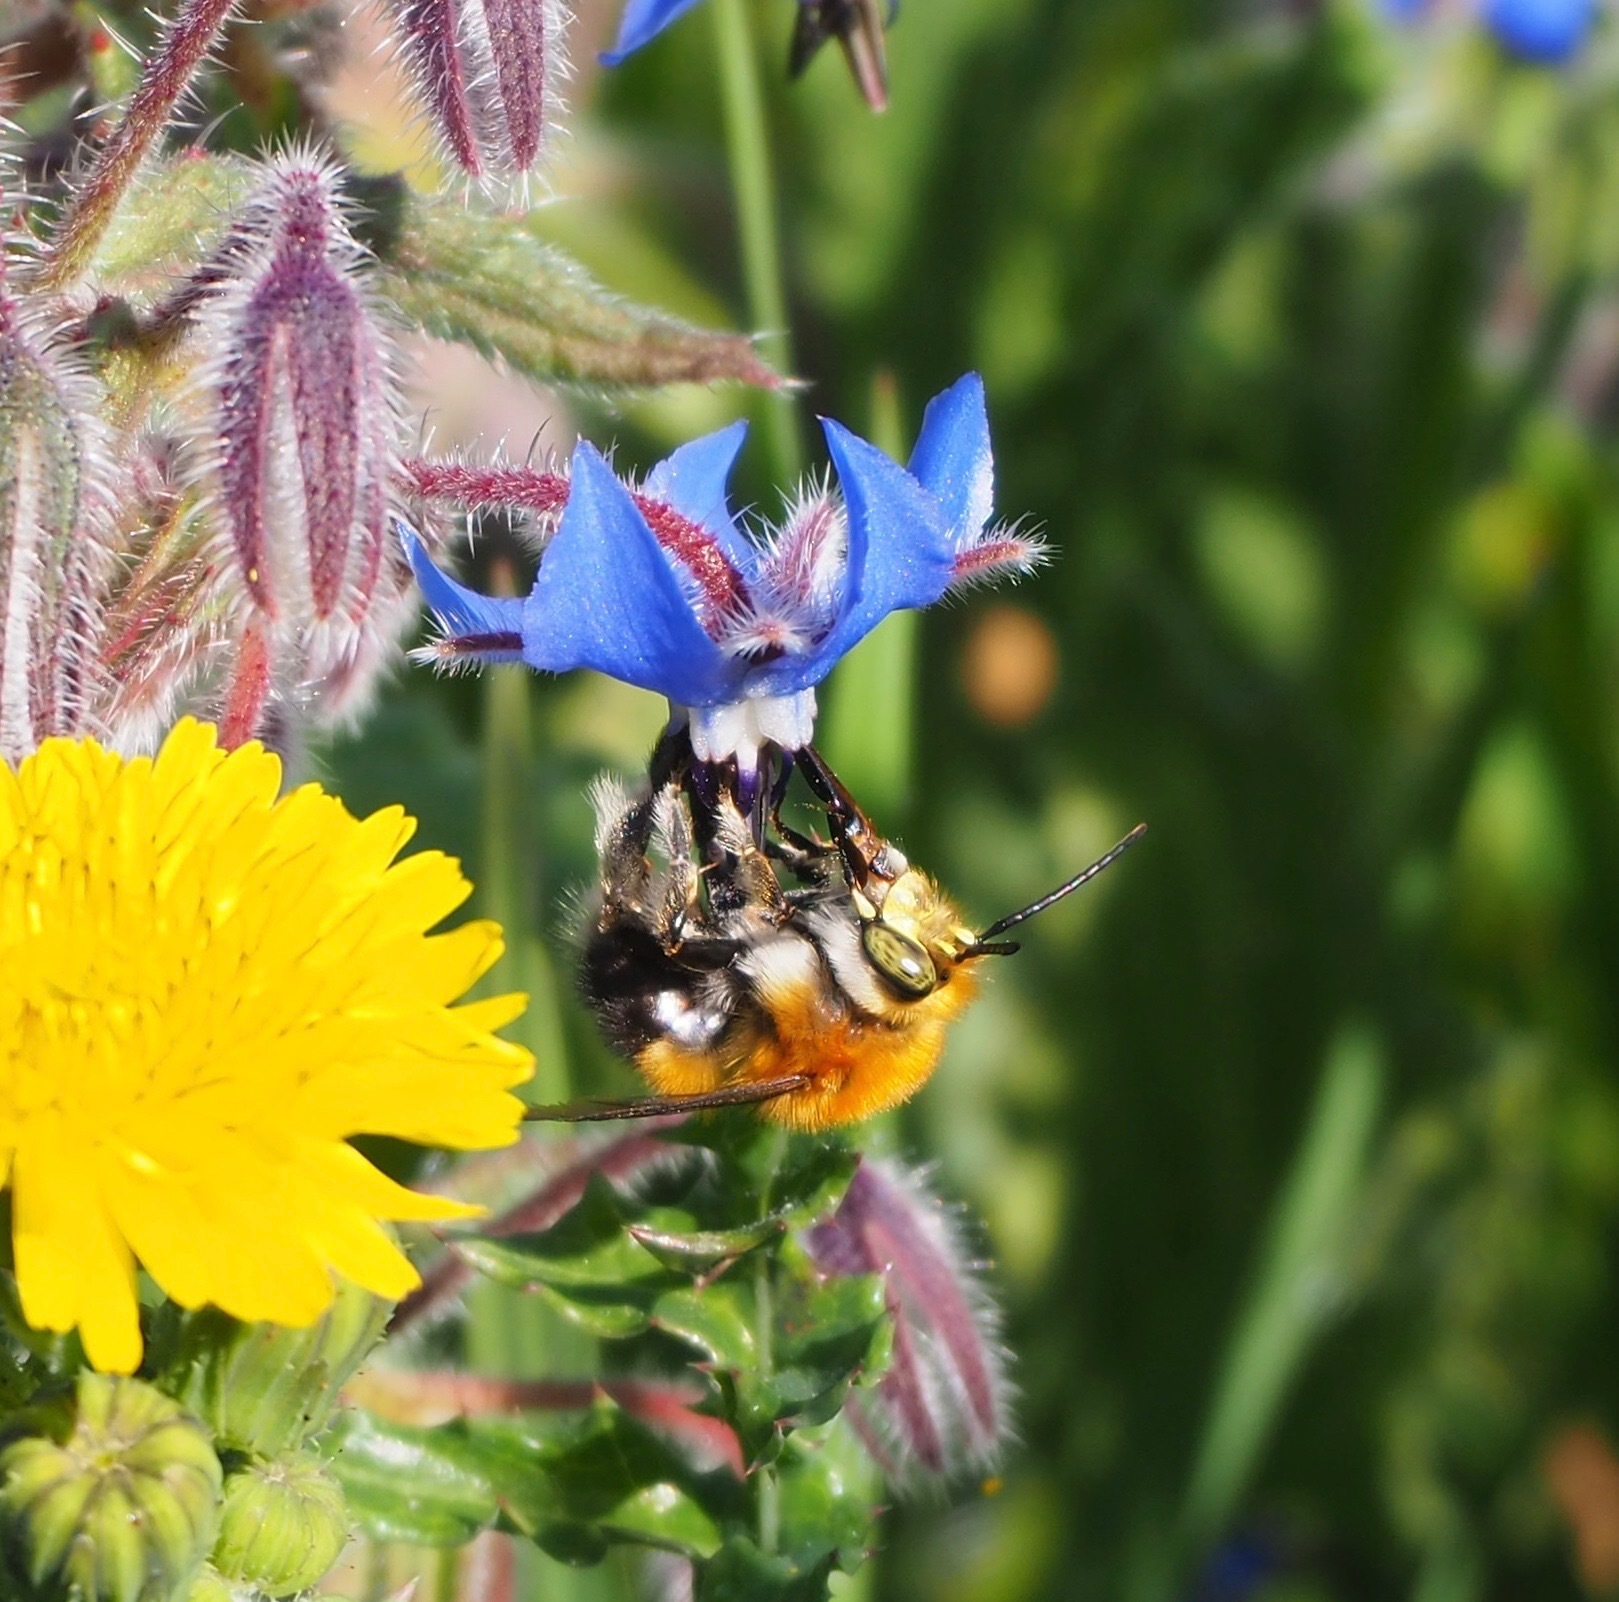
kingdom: Animalia
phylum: Arthropoda
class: Insecta
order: Hymenoptera
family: Apidae
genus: Habropoda
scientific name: Habropoda tarsata
